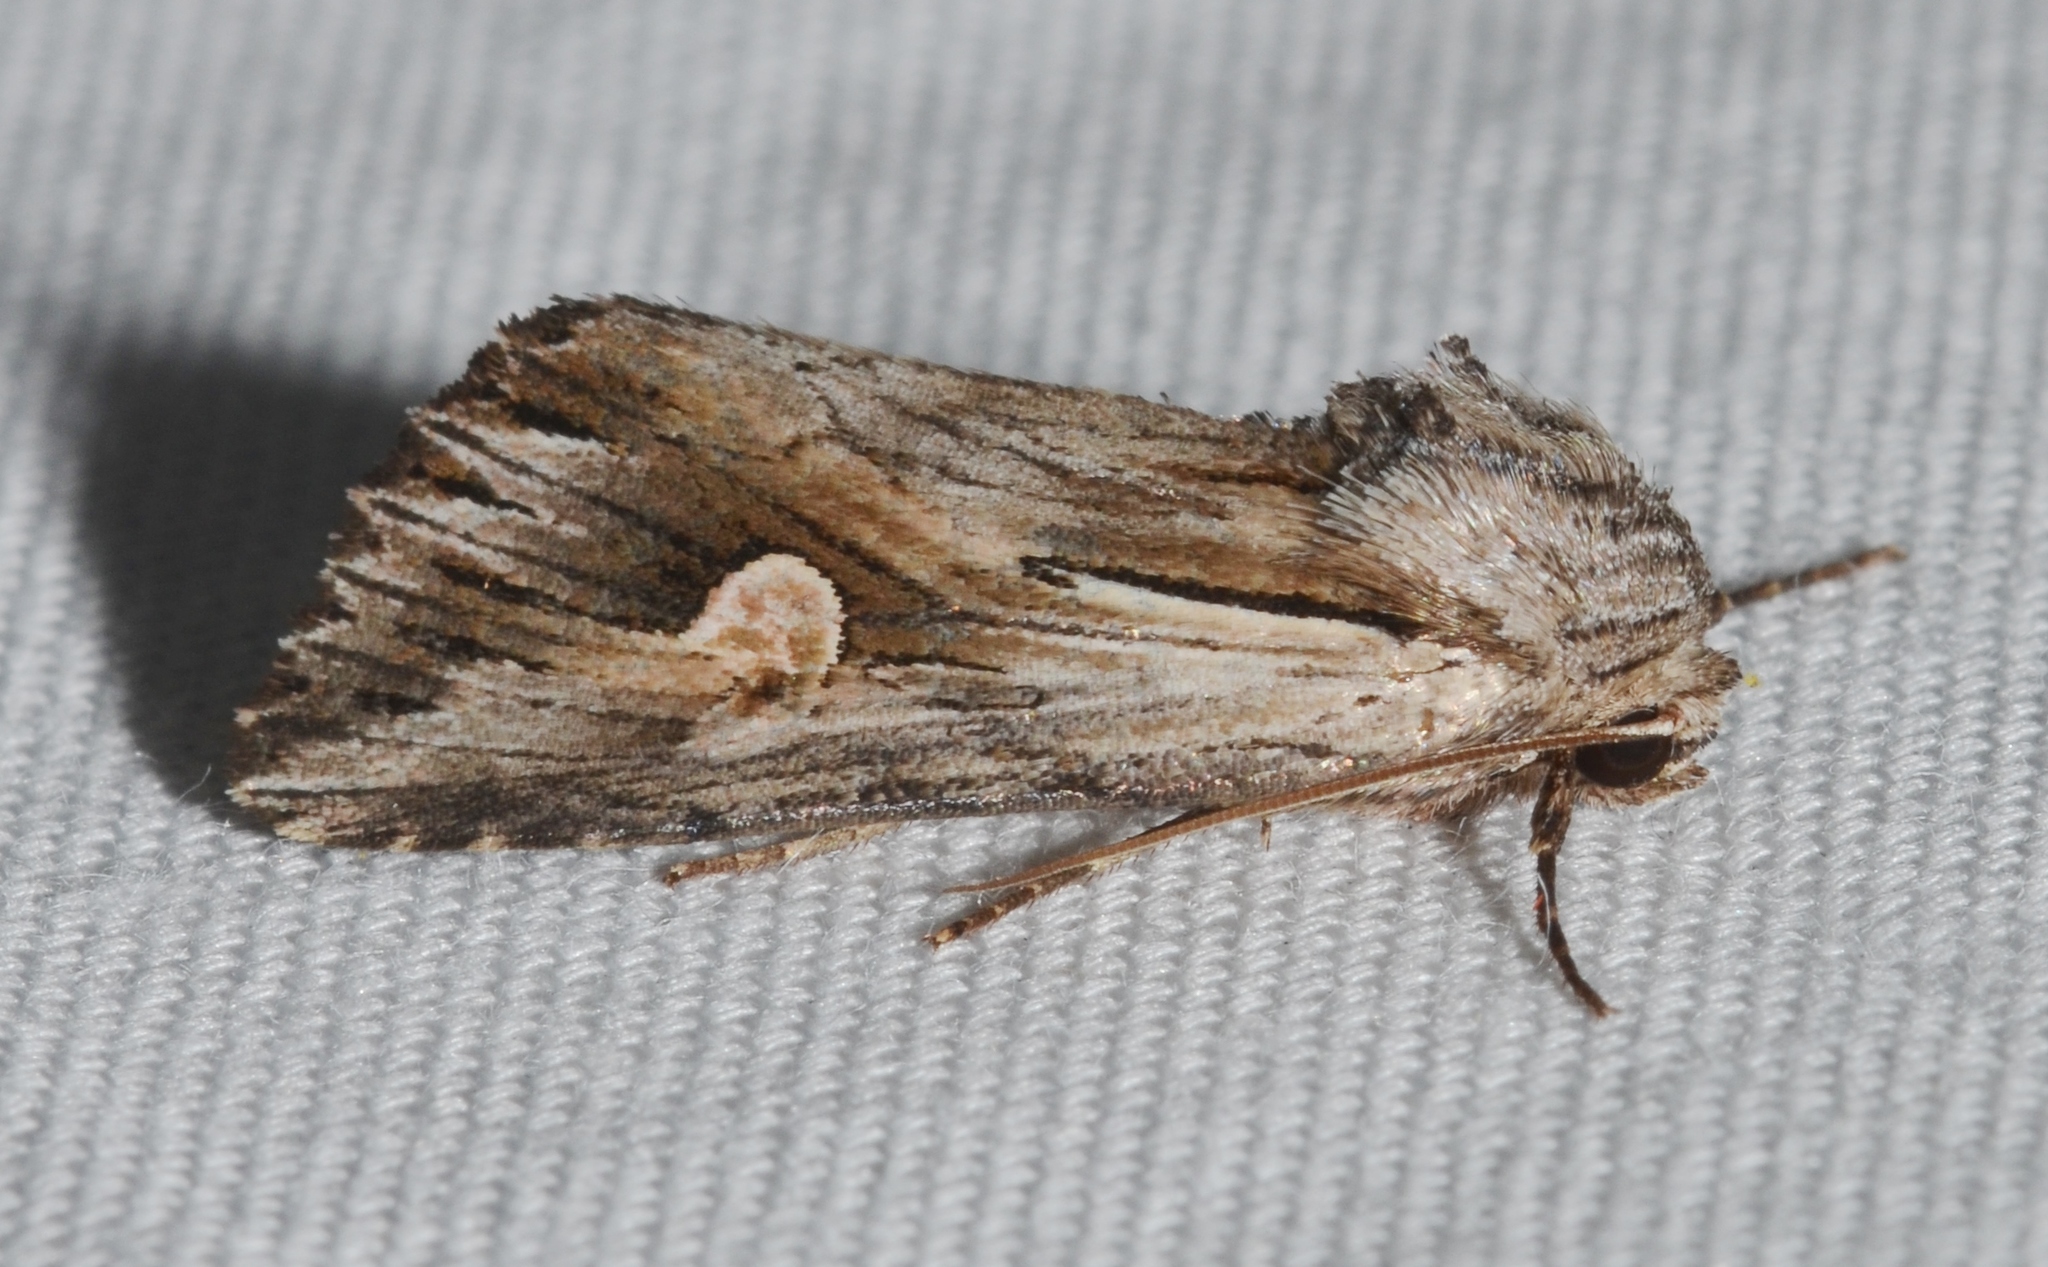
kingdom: Animalia
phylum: Arthropoda
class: Insecta
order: Lepidoptera
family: Noctuidae
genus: Nedra
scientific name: Nedra ramosula
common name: Gray half-spot
